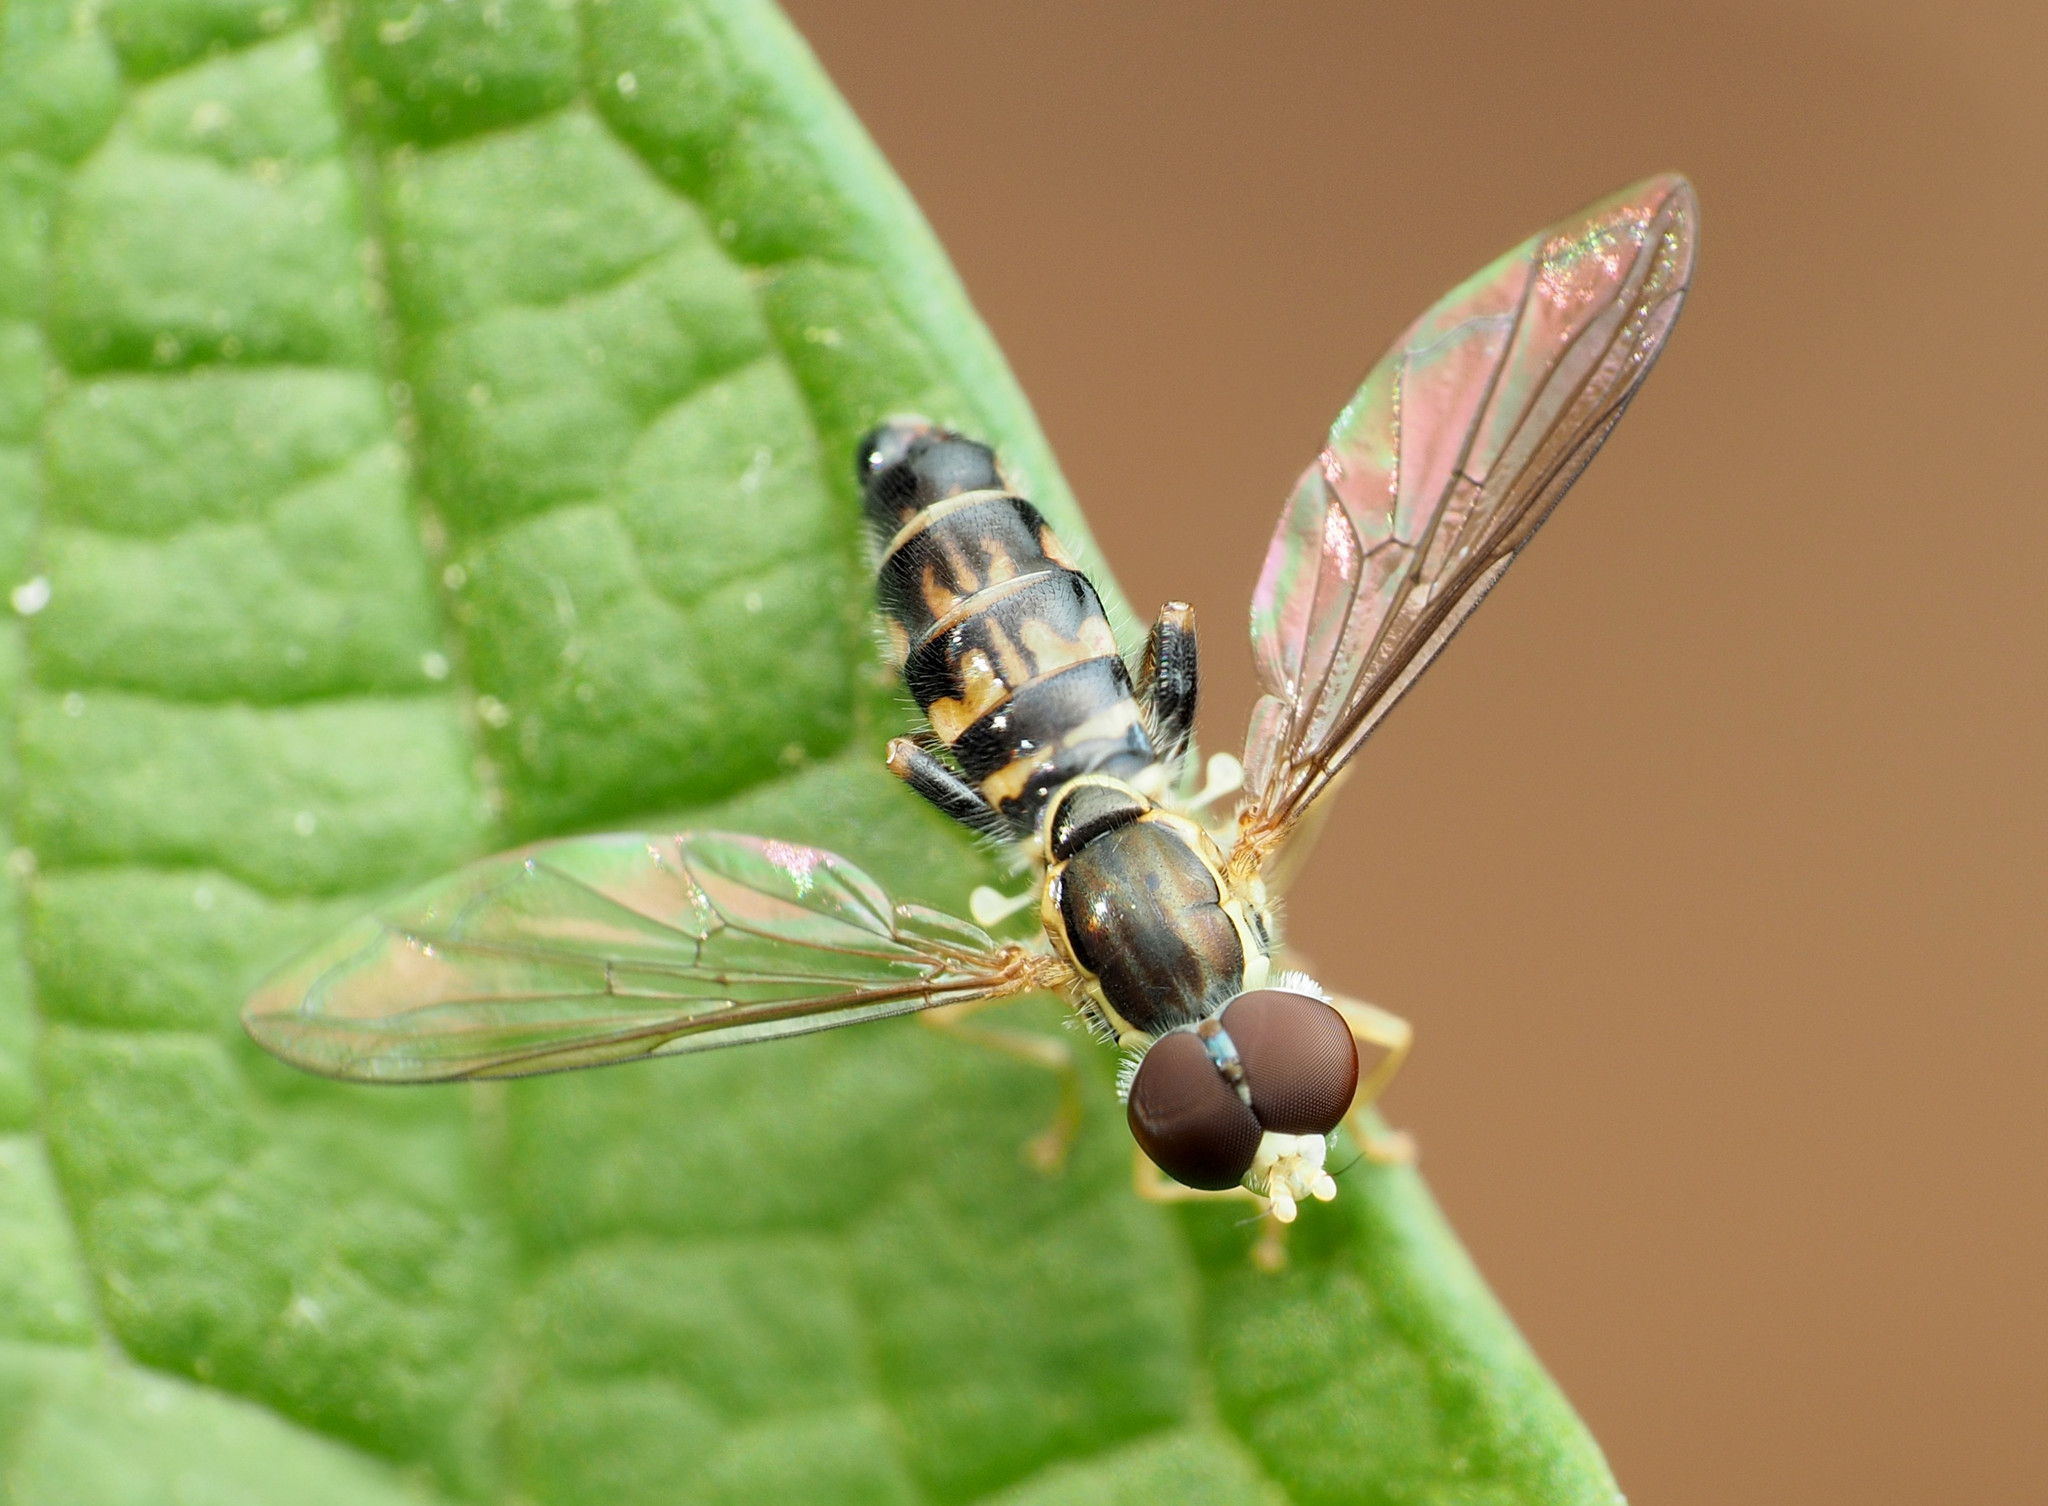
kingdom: Animalia
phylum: Arthropoda
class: Insecta
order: Diptera
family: Syrphidae
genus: Toxomerus
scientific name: Toxomerus geminatus
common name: Eastern calligrapher
